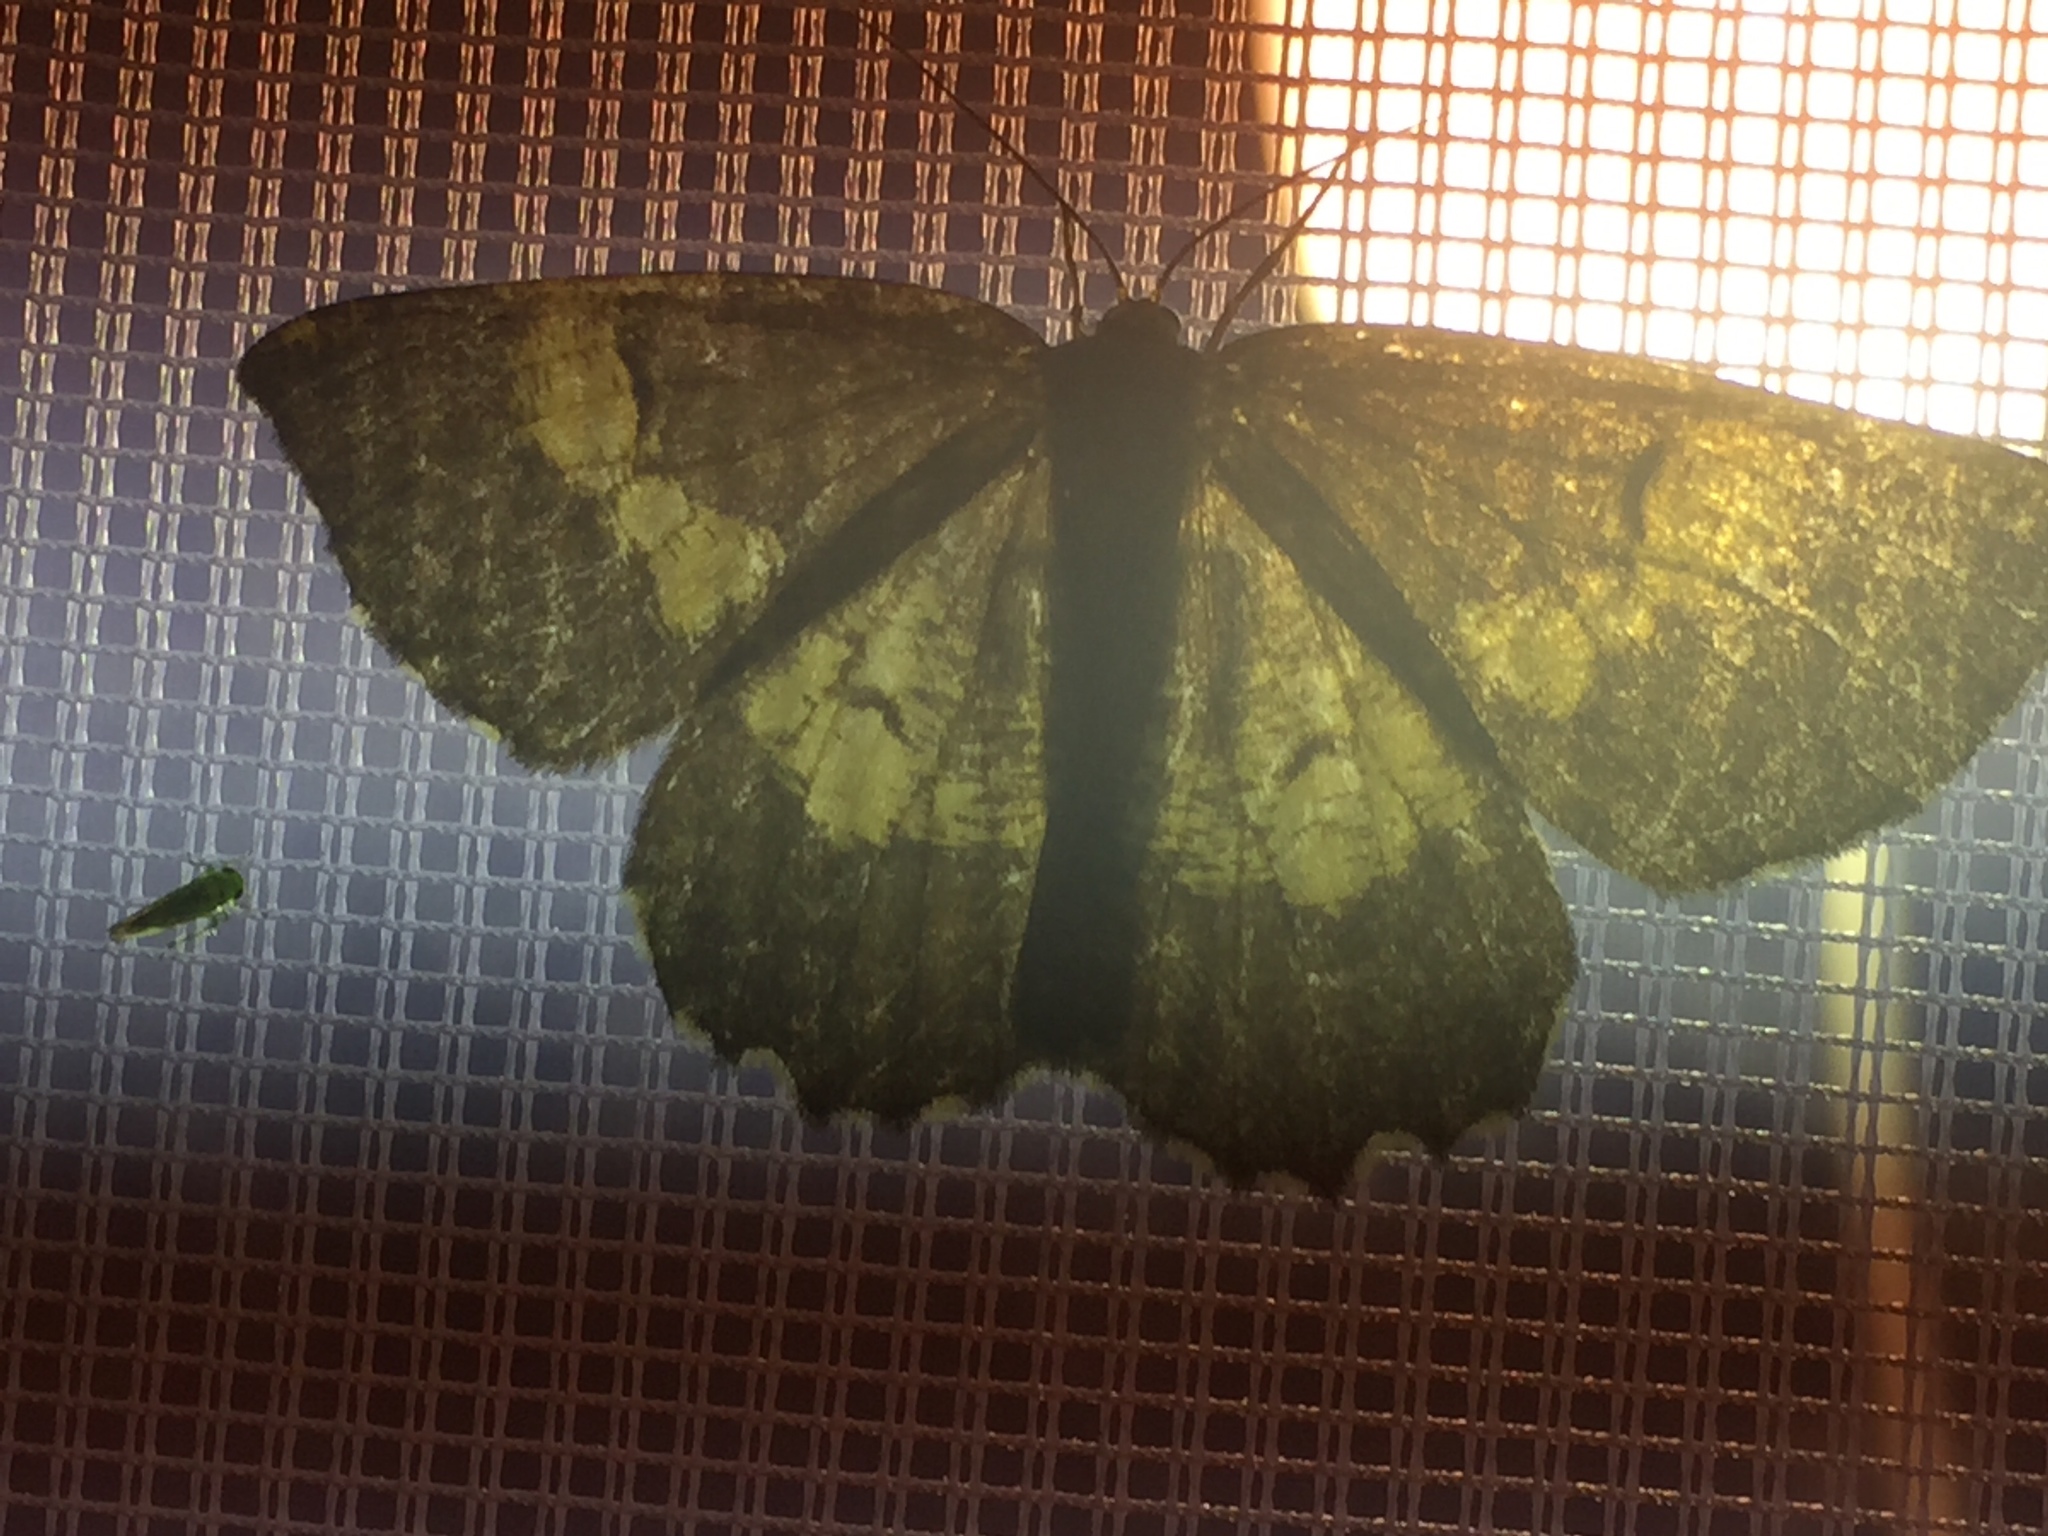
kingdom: Animalia
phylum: Arthropoda
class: Insecta
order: Lepidoptera
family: Geometridae
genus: Angerona
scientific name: Angerona prunaria
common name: Orange moth
